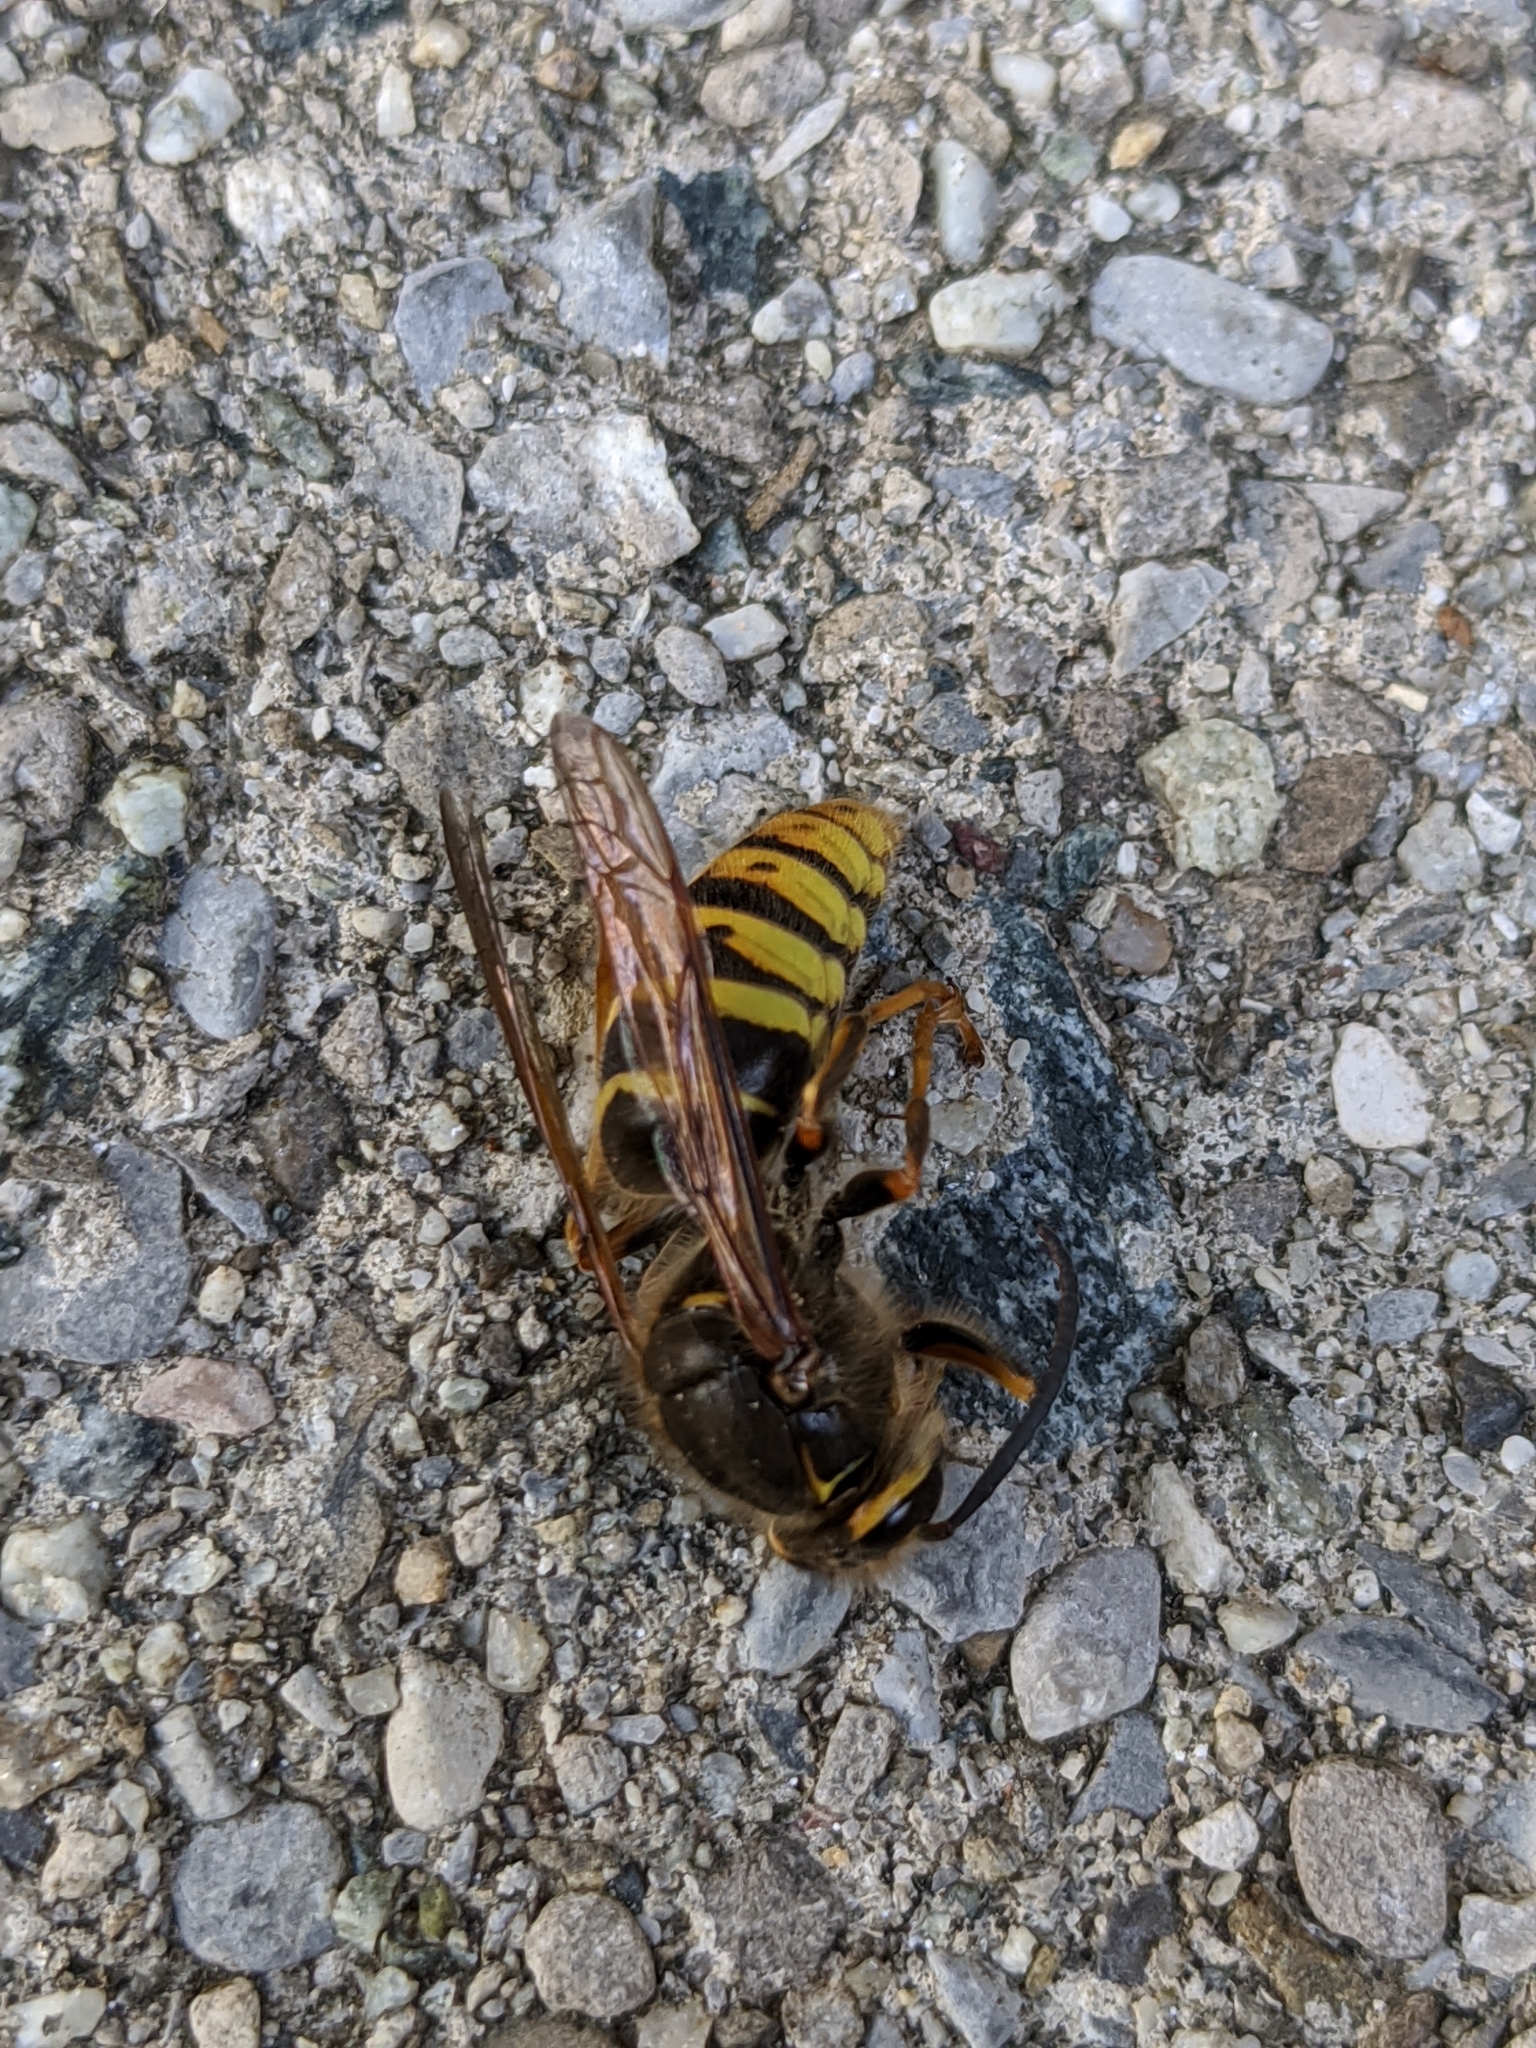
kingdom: Animalia
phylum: Arthropoda
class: Insecta
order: Hymenoptera
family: Vespidae
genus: Dolichovespula
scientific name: Dolichovespula media
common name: Median wasp
